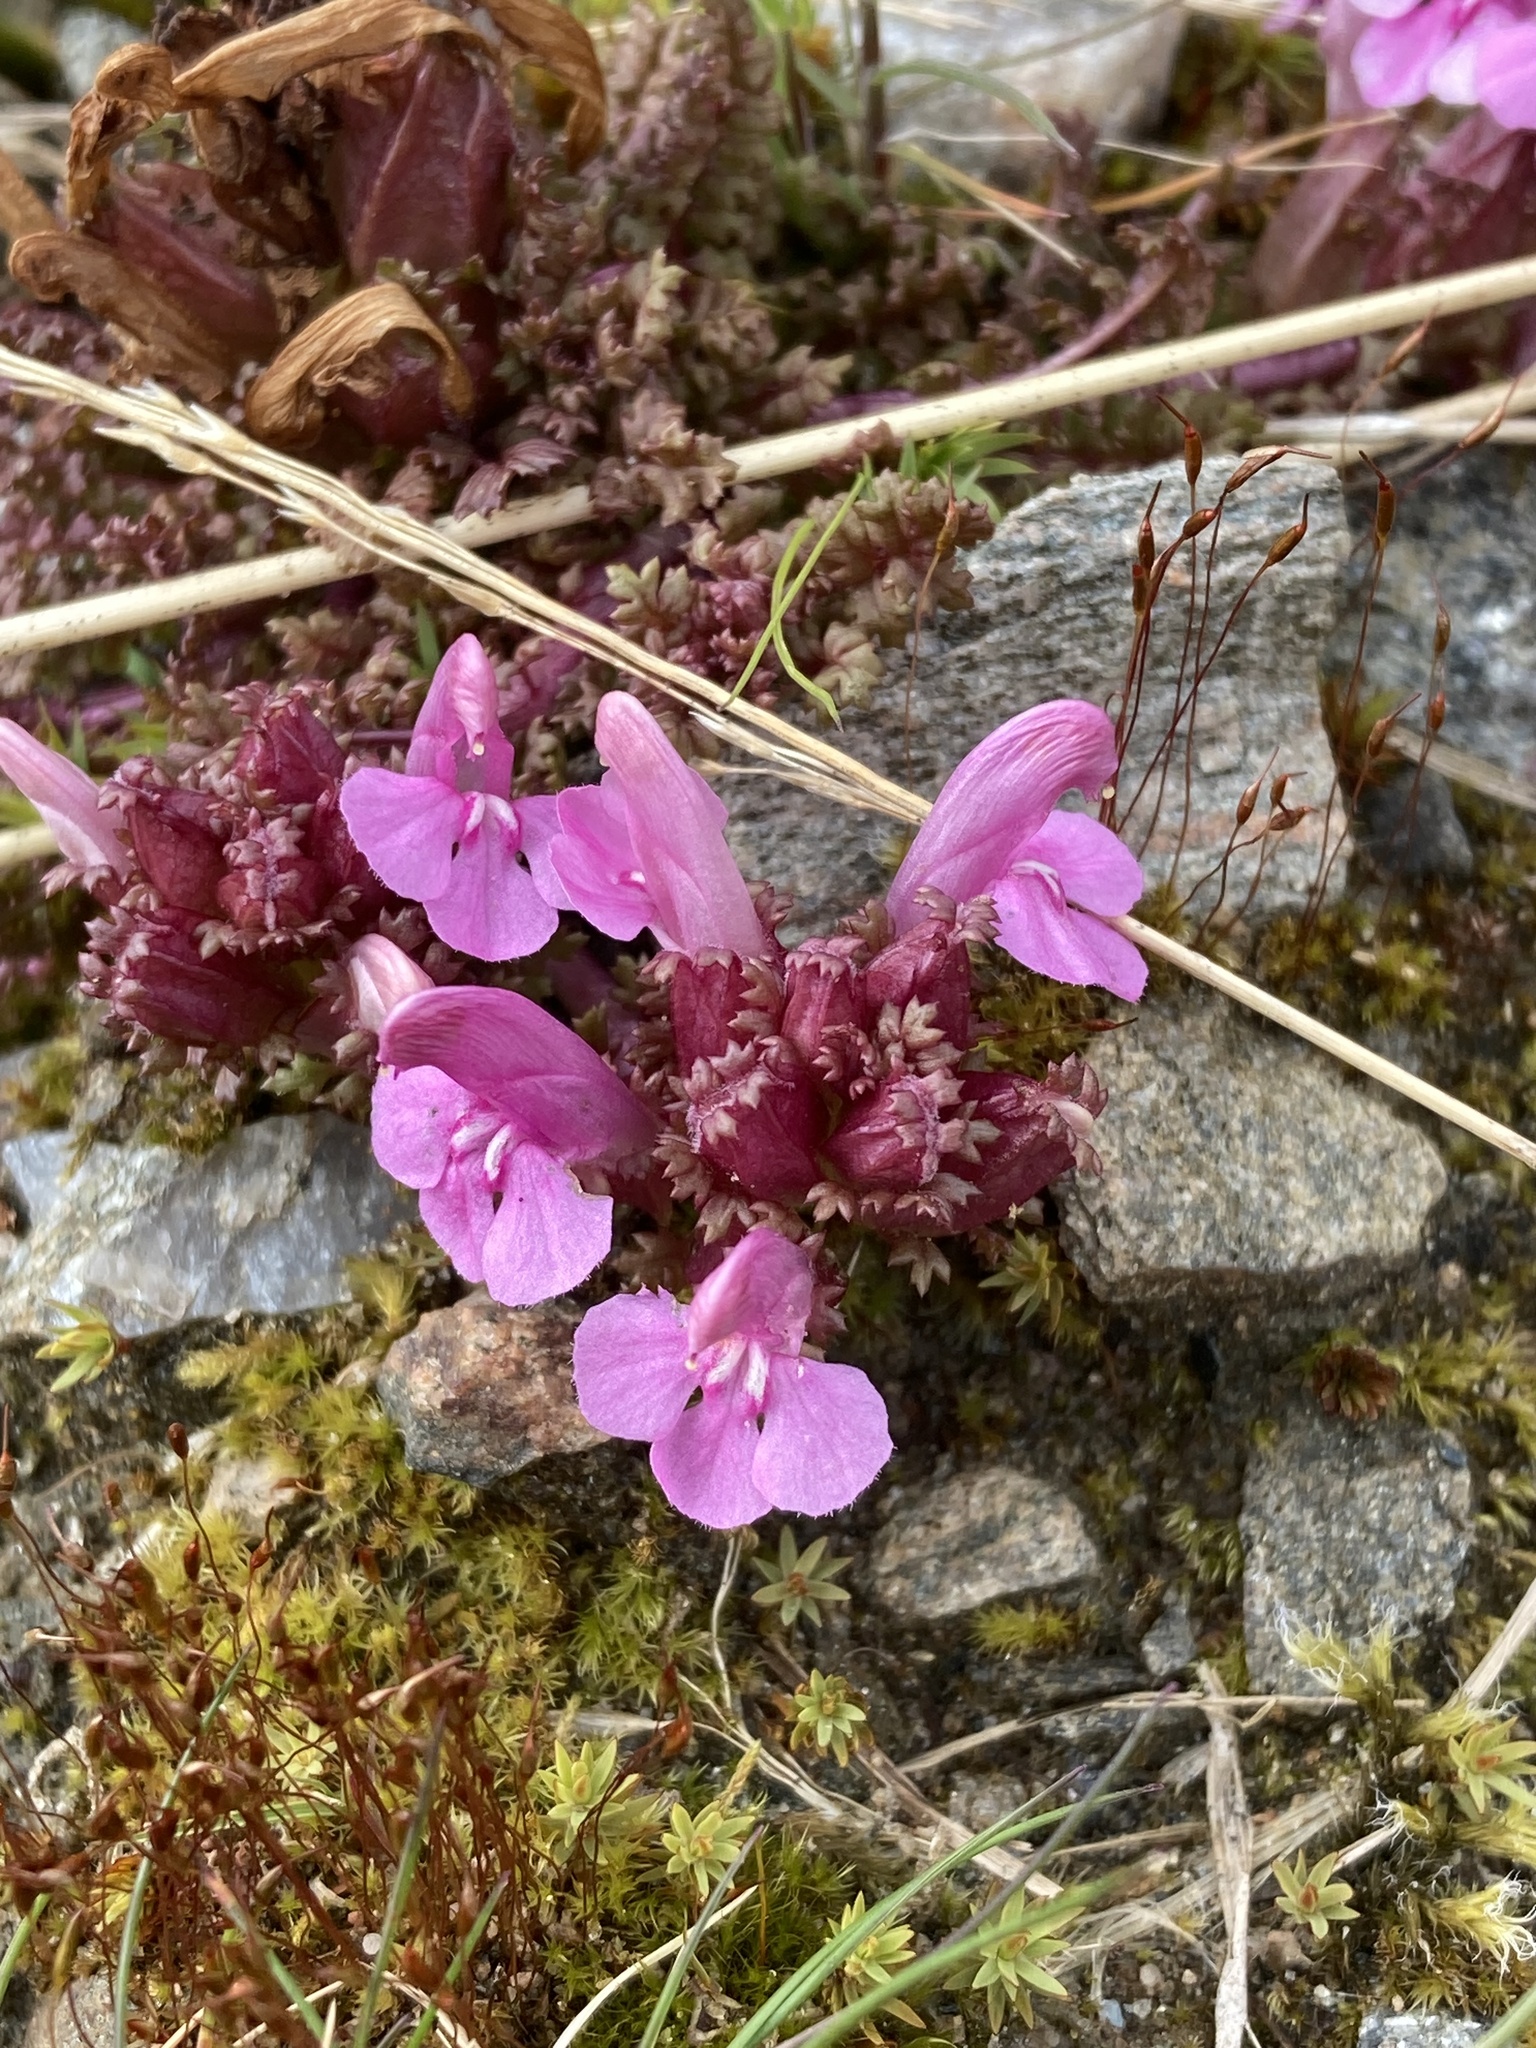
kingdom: Plantae
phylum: Tracheophyta
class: Magnoliopsida
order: Lamiales
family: Orobanchaceae
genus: Pedicularis
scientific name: Pedicularis sylvatica
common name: Lousewort
